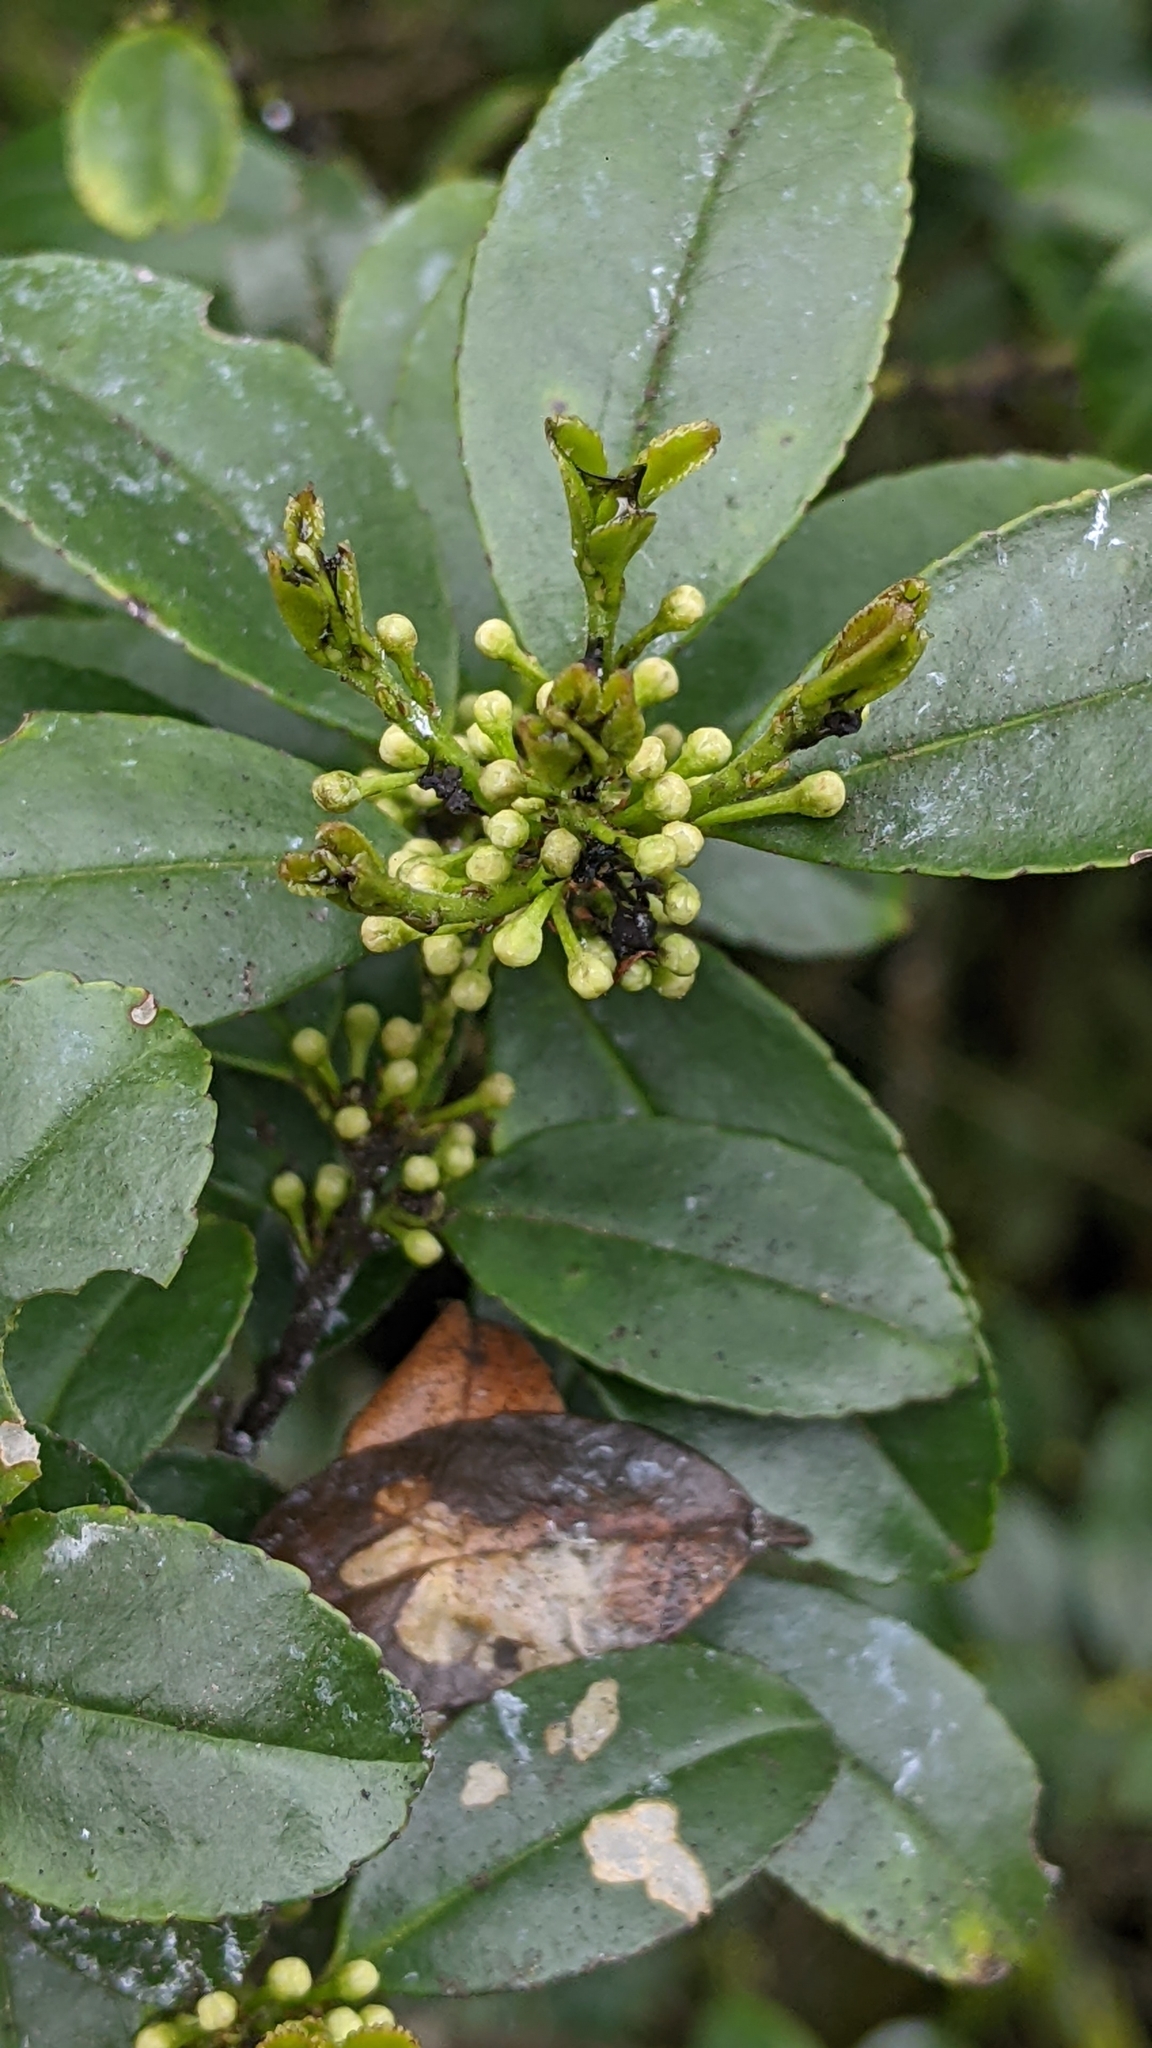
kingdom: Plantae
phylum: Tracheophyta
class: Magnoliopsida
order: Aquifoliales
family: Aquifoliaceae
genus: Ilex
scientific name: Ilex crenata
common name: Japanese holly
